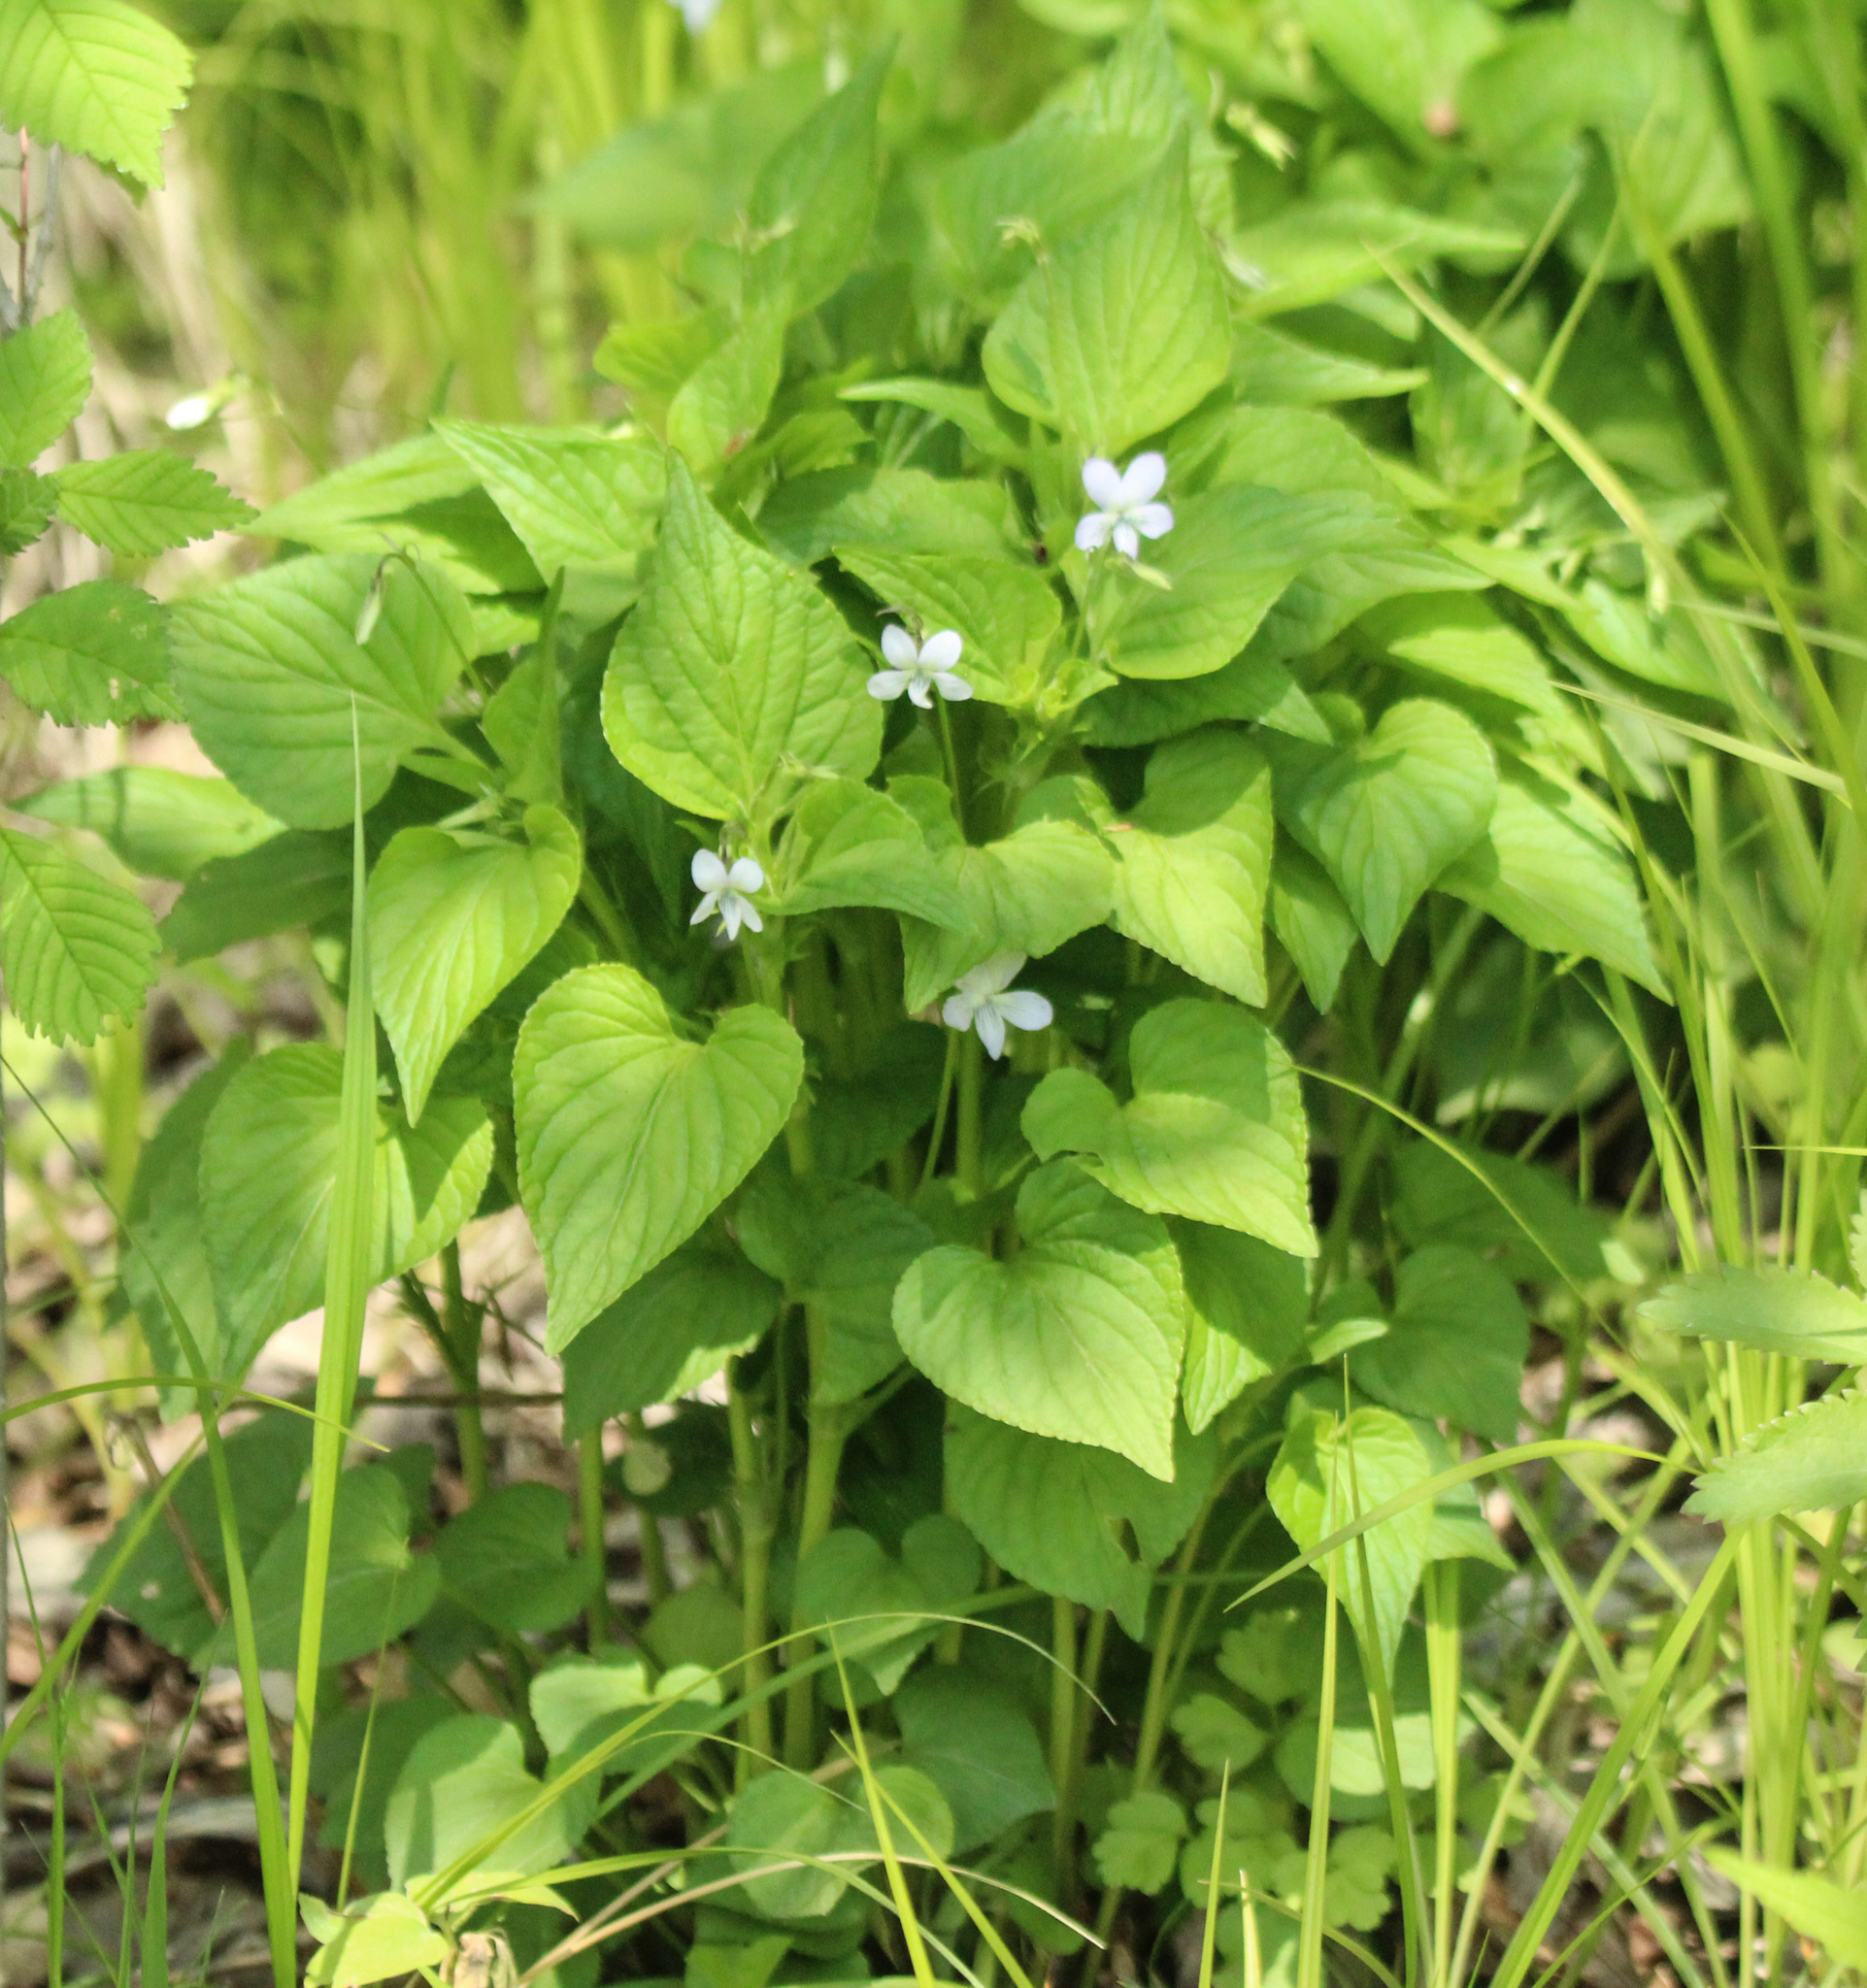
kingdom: Plantae
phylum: Tracheophyta
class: Magnoliopsida
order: Malpighiales
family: Violaceae
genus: Viola
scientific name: Viola acuminata
